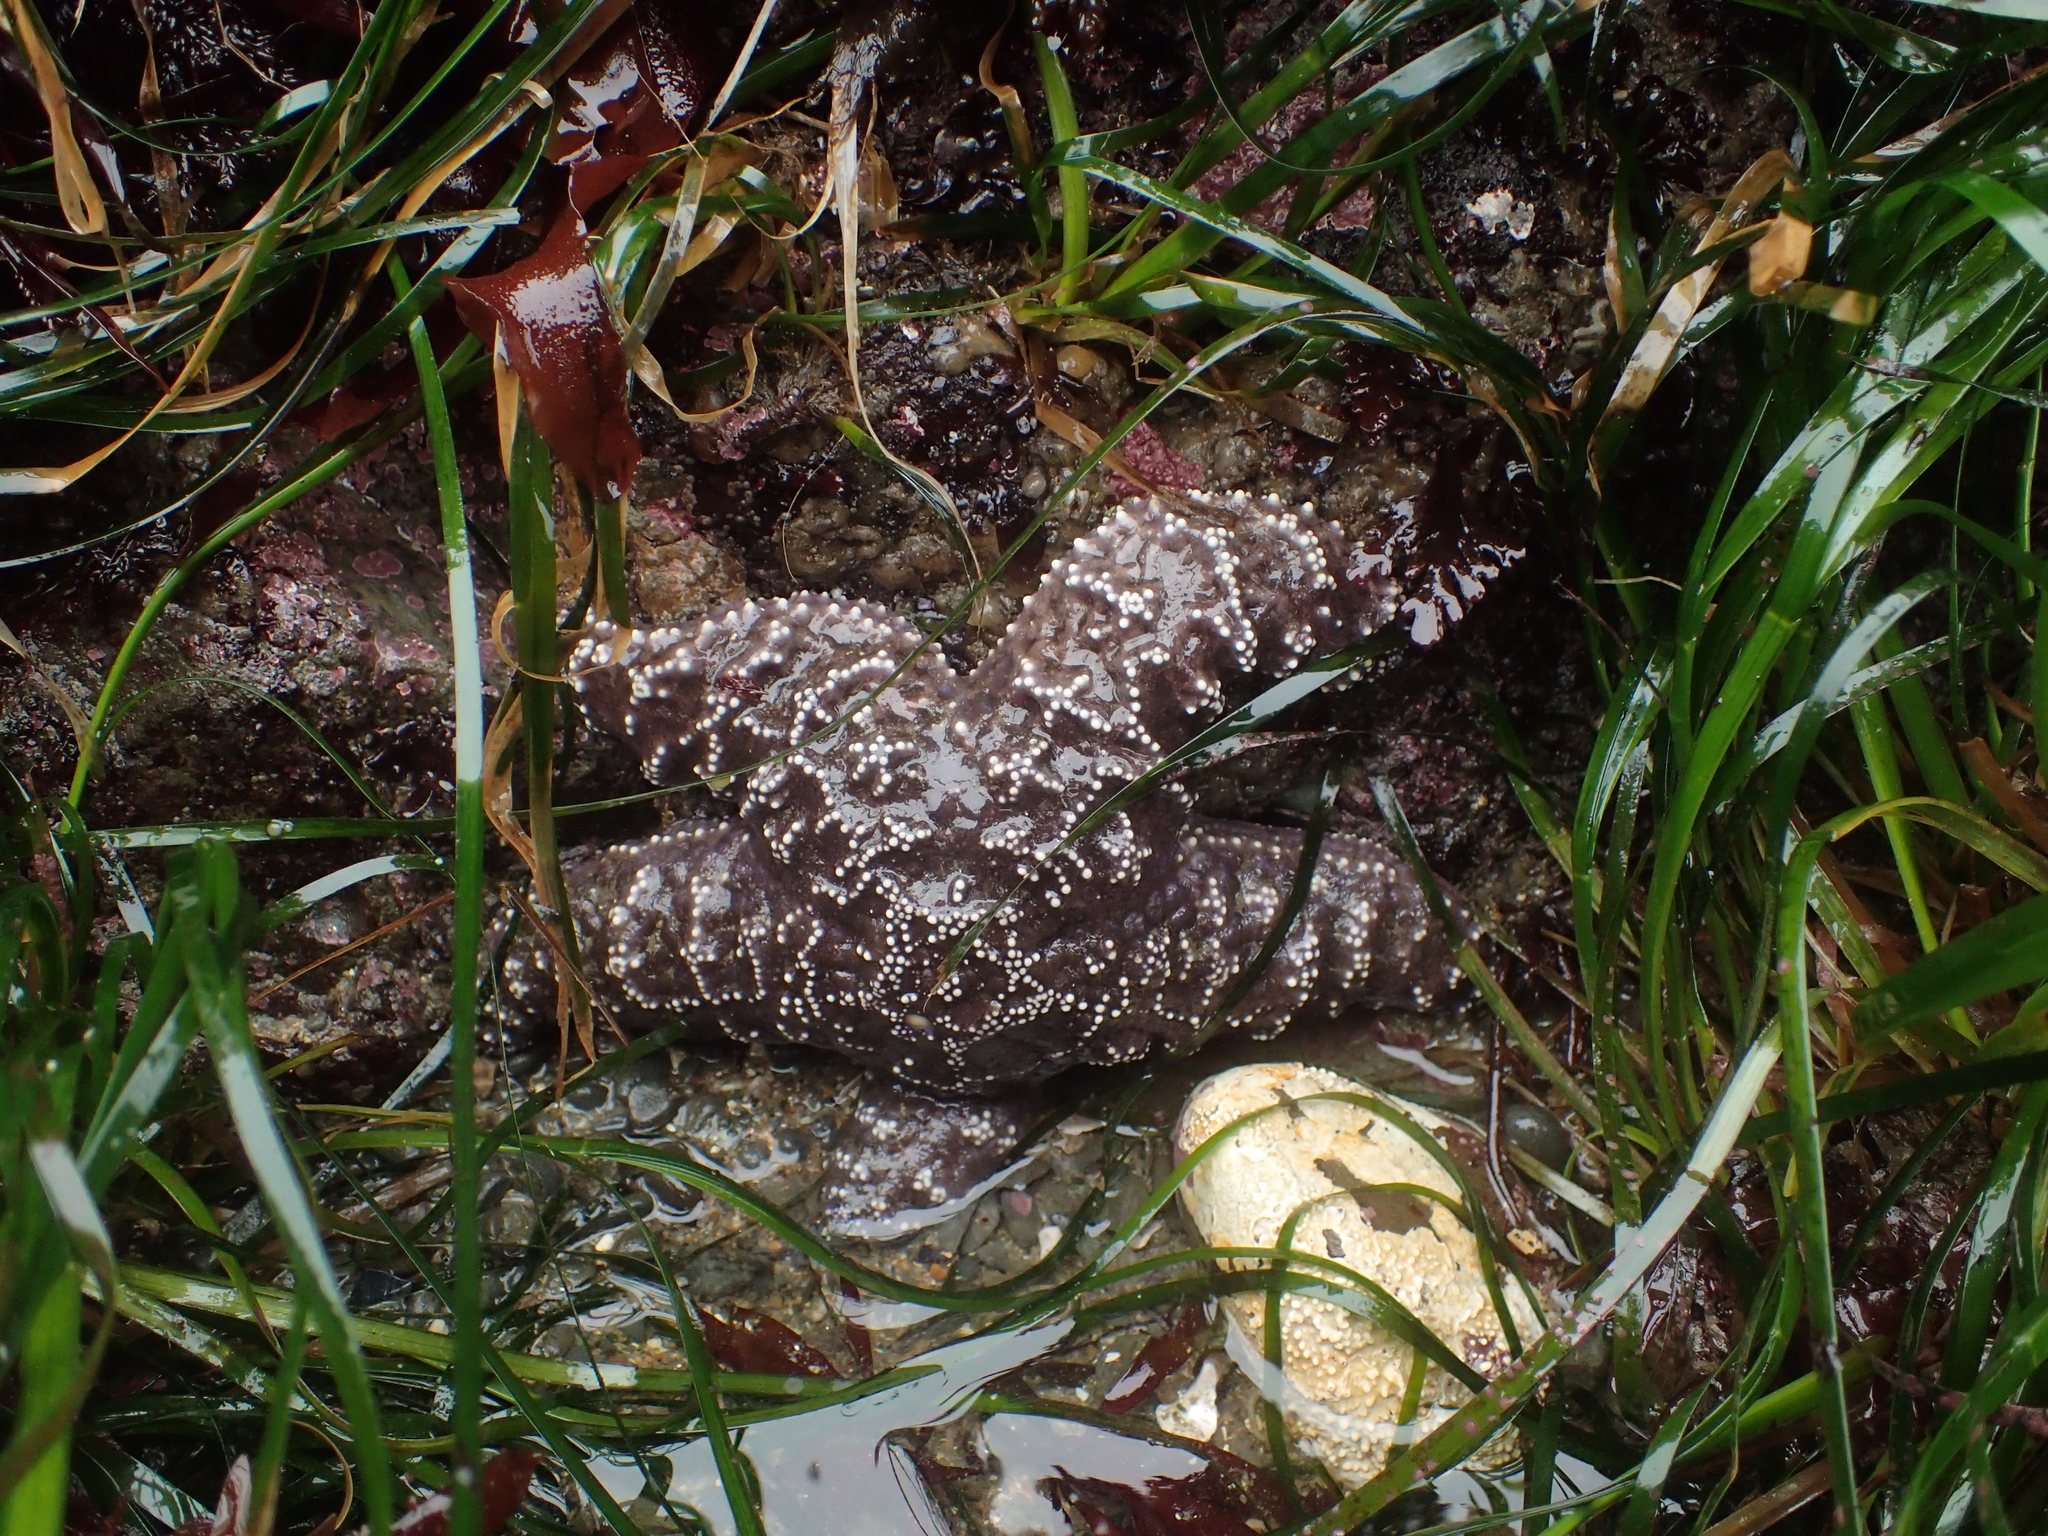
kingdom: Animalia
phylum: Echinodermata
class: Asteroidea
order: Forcipulatida
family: Asteriidae
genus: Pisaster
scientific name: Pisaster ochraceus
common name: Ochre stars
